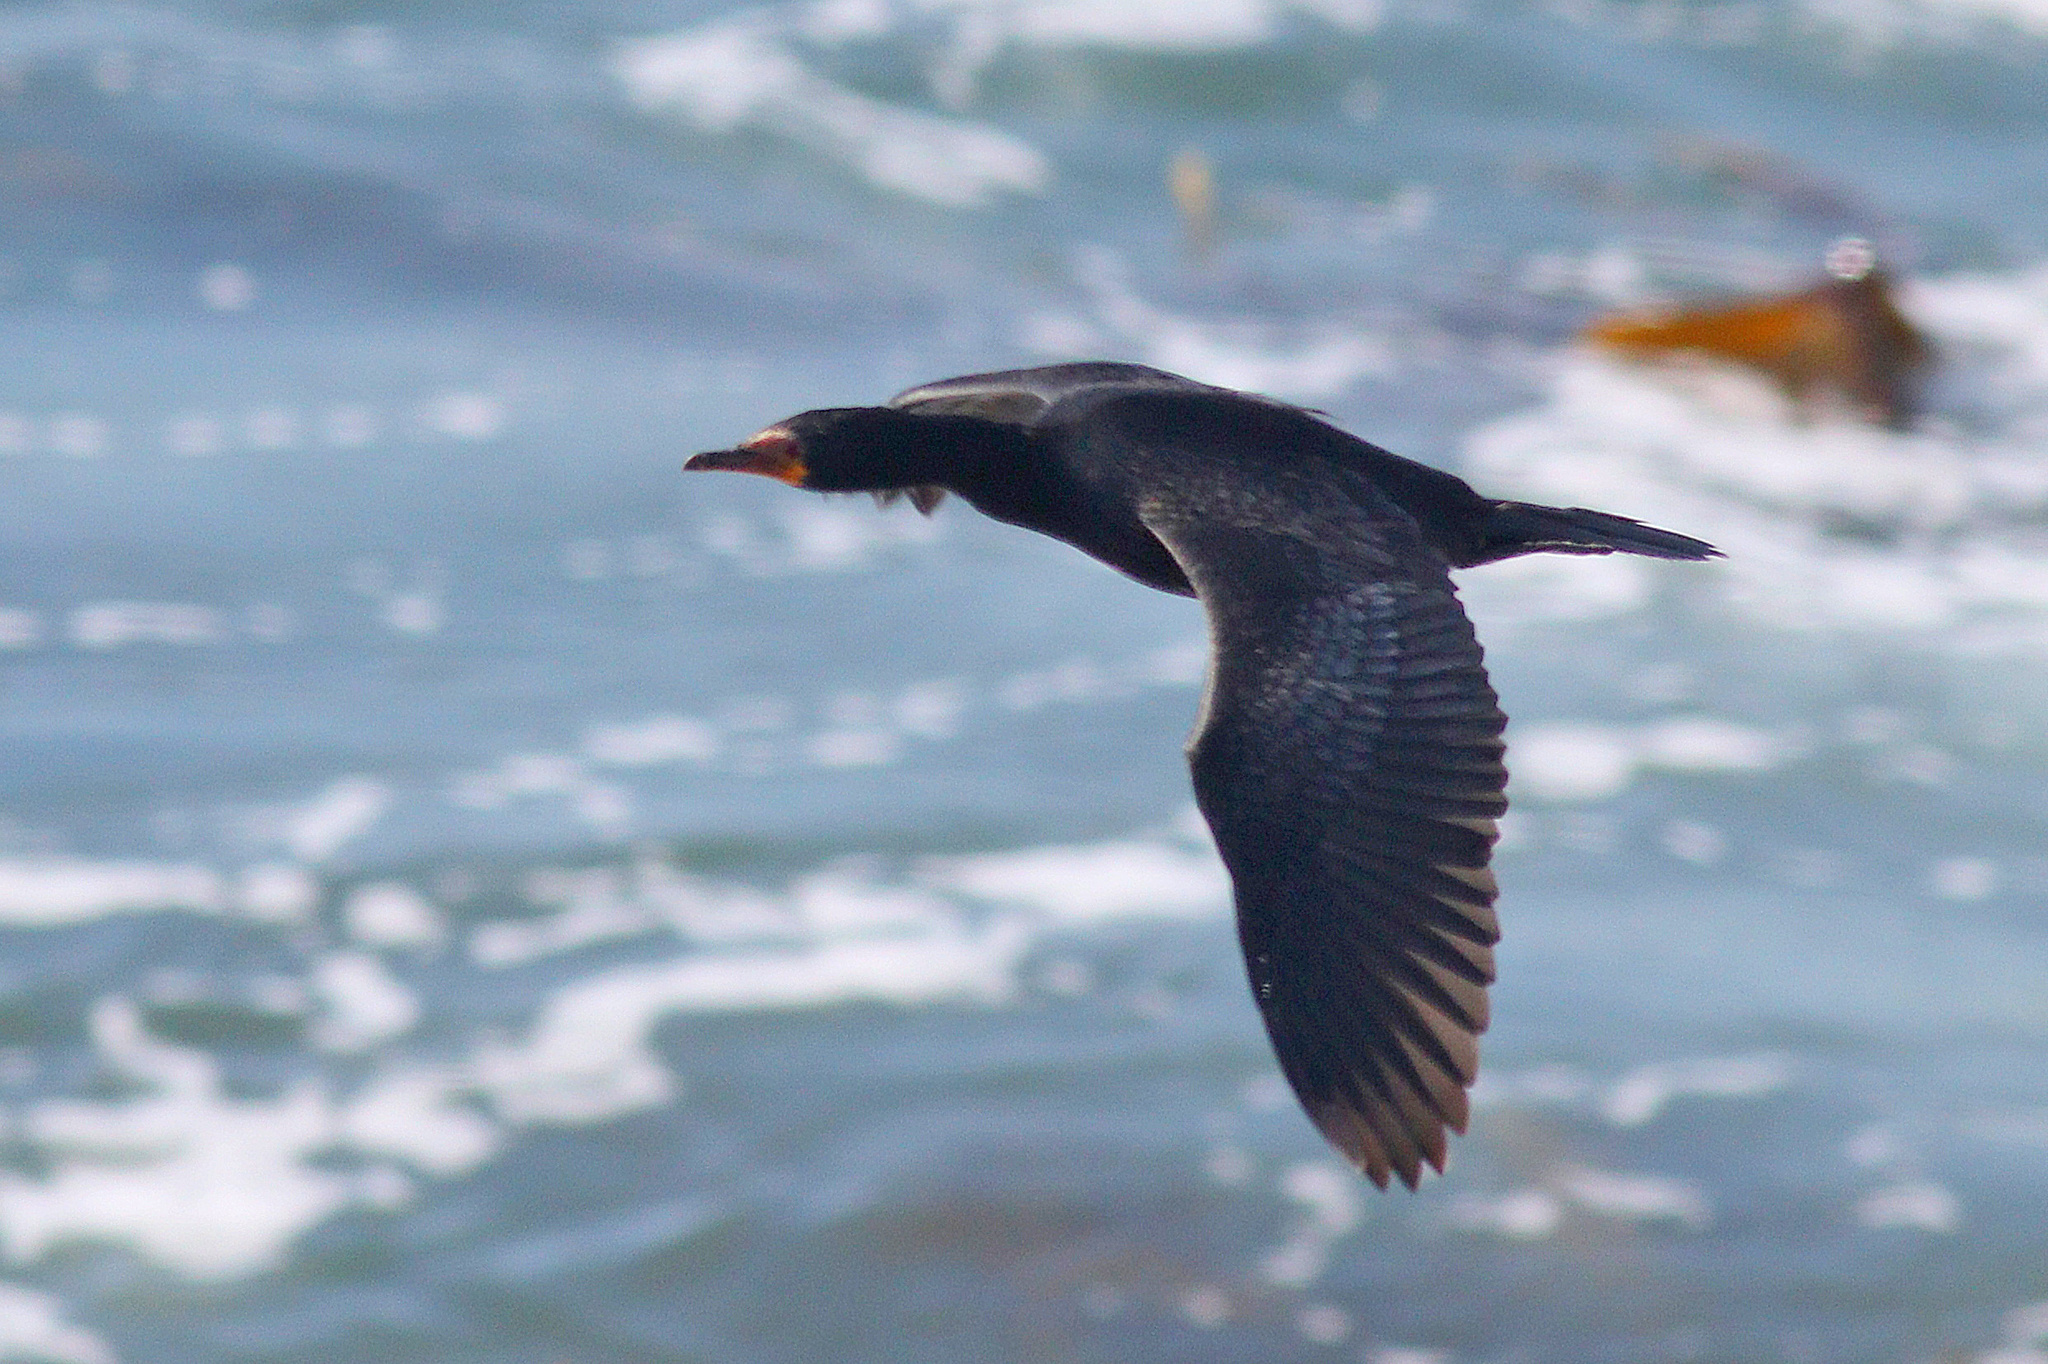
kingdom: Animalia
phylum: Chordata
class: Aves
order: Suliformes
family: Phalacrocoracidae
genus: Microcarbo
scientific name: Microcarbo coronatus
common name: Crowned cormorant
